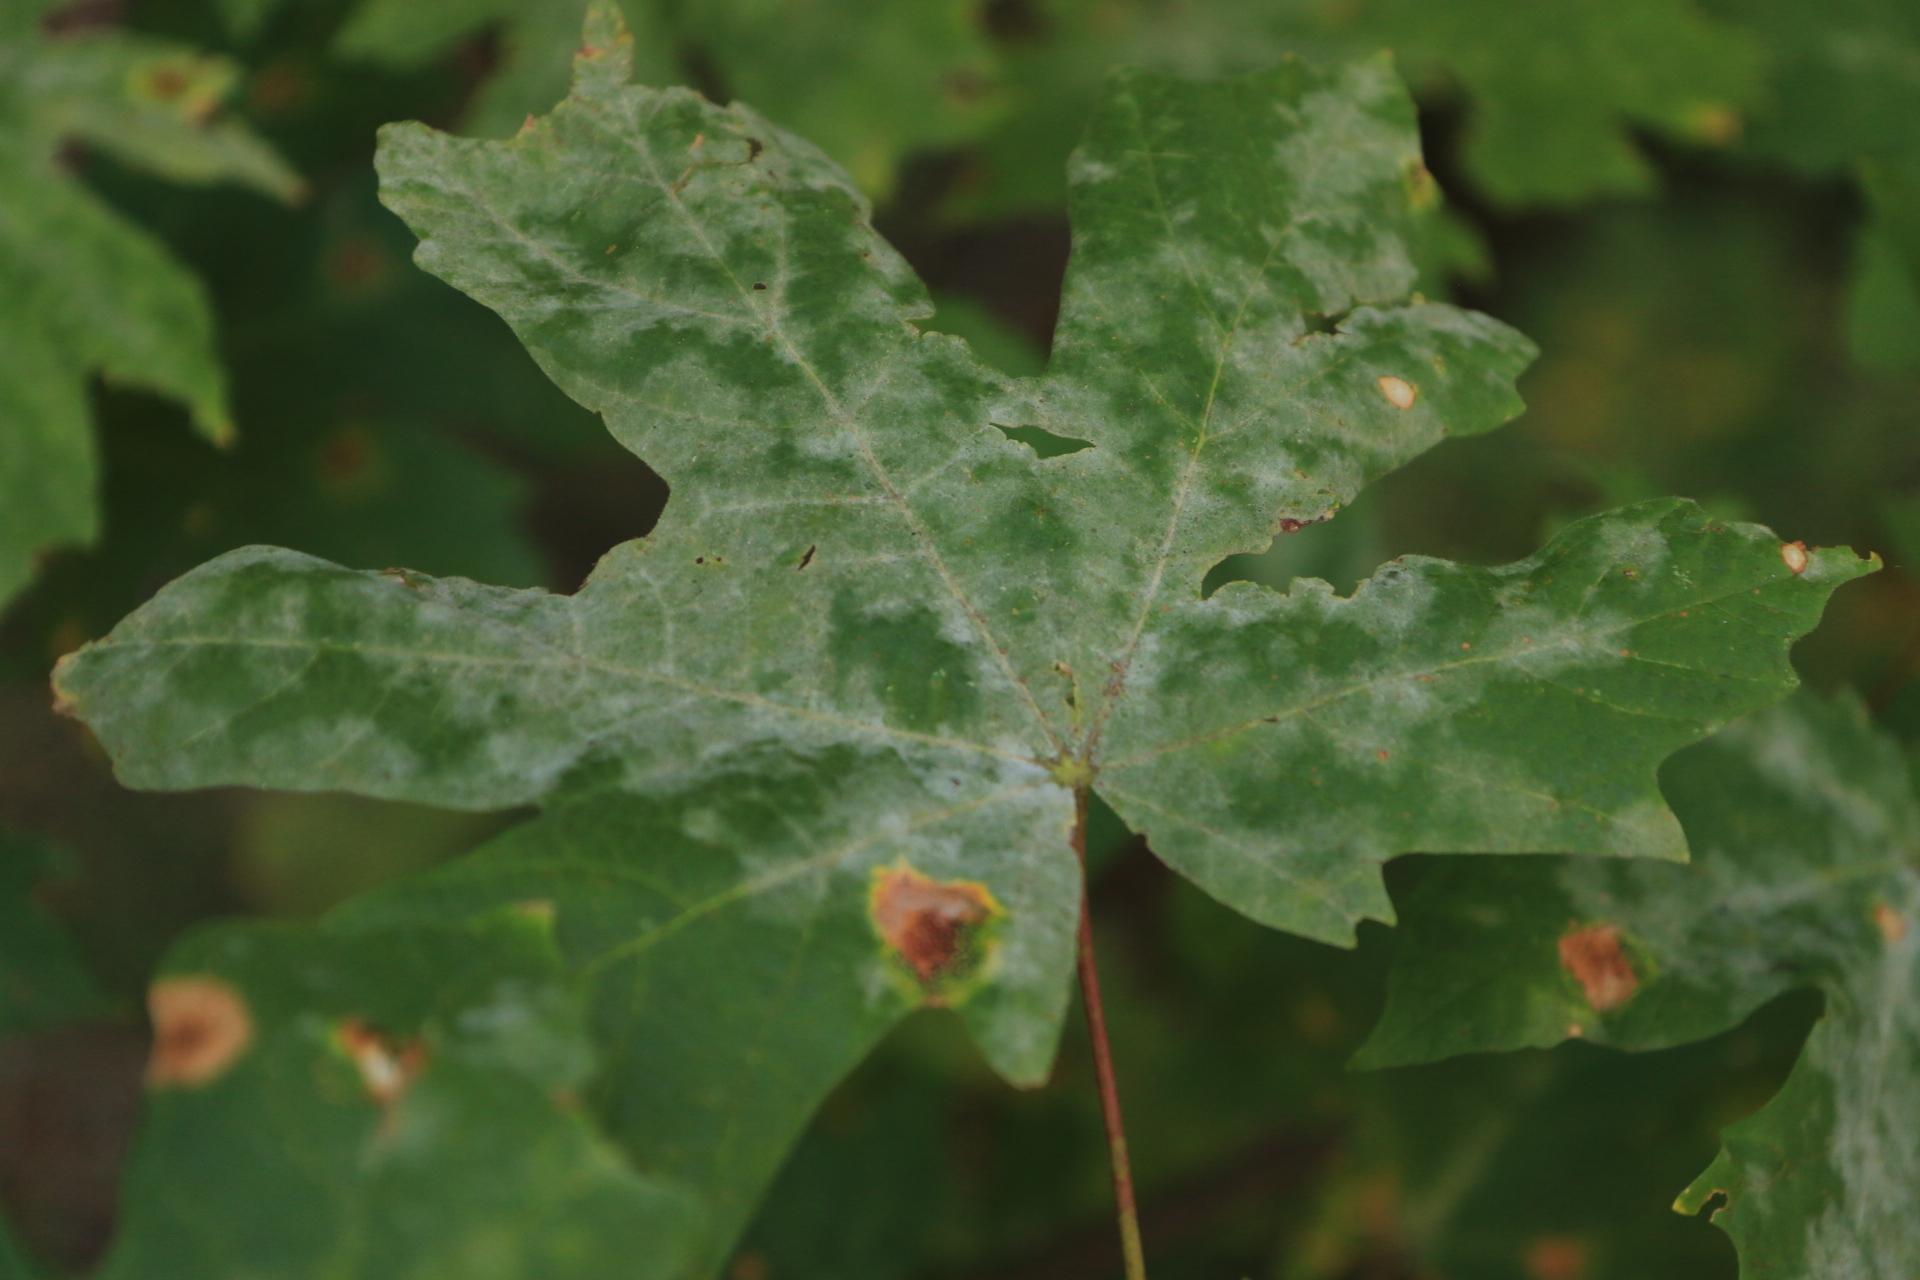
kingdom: Fungi
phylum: Ascomycota
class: Leotiomycetes
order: Helotiales
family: Erysiphaceae
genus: Sawadaea
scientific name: Sawadaea bicornis
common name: Maple mildew
